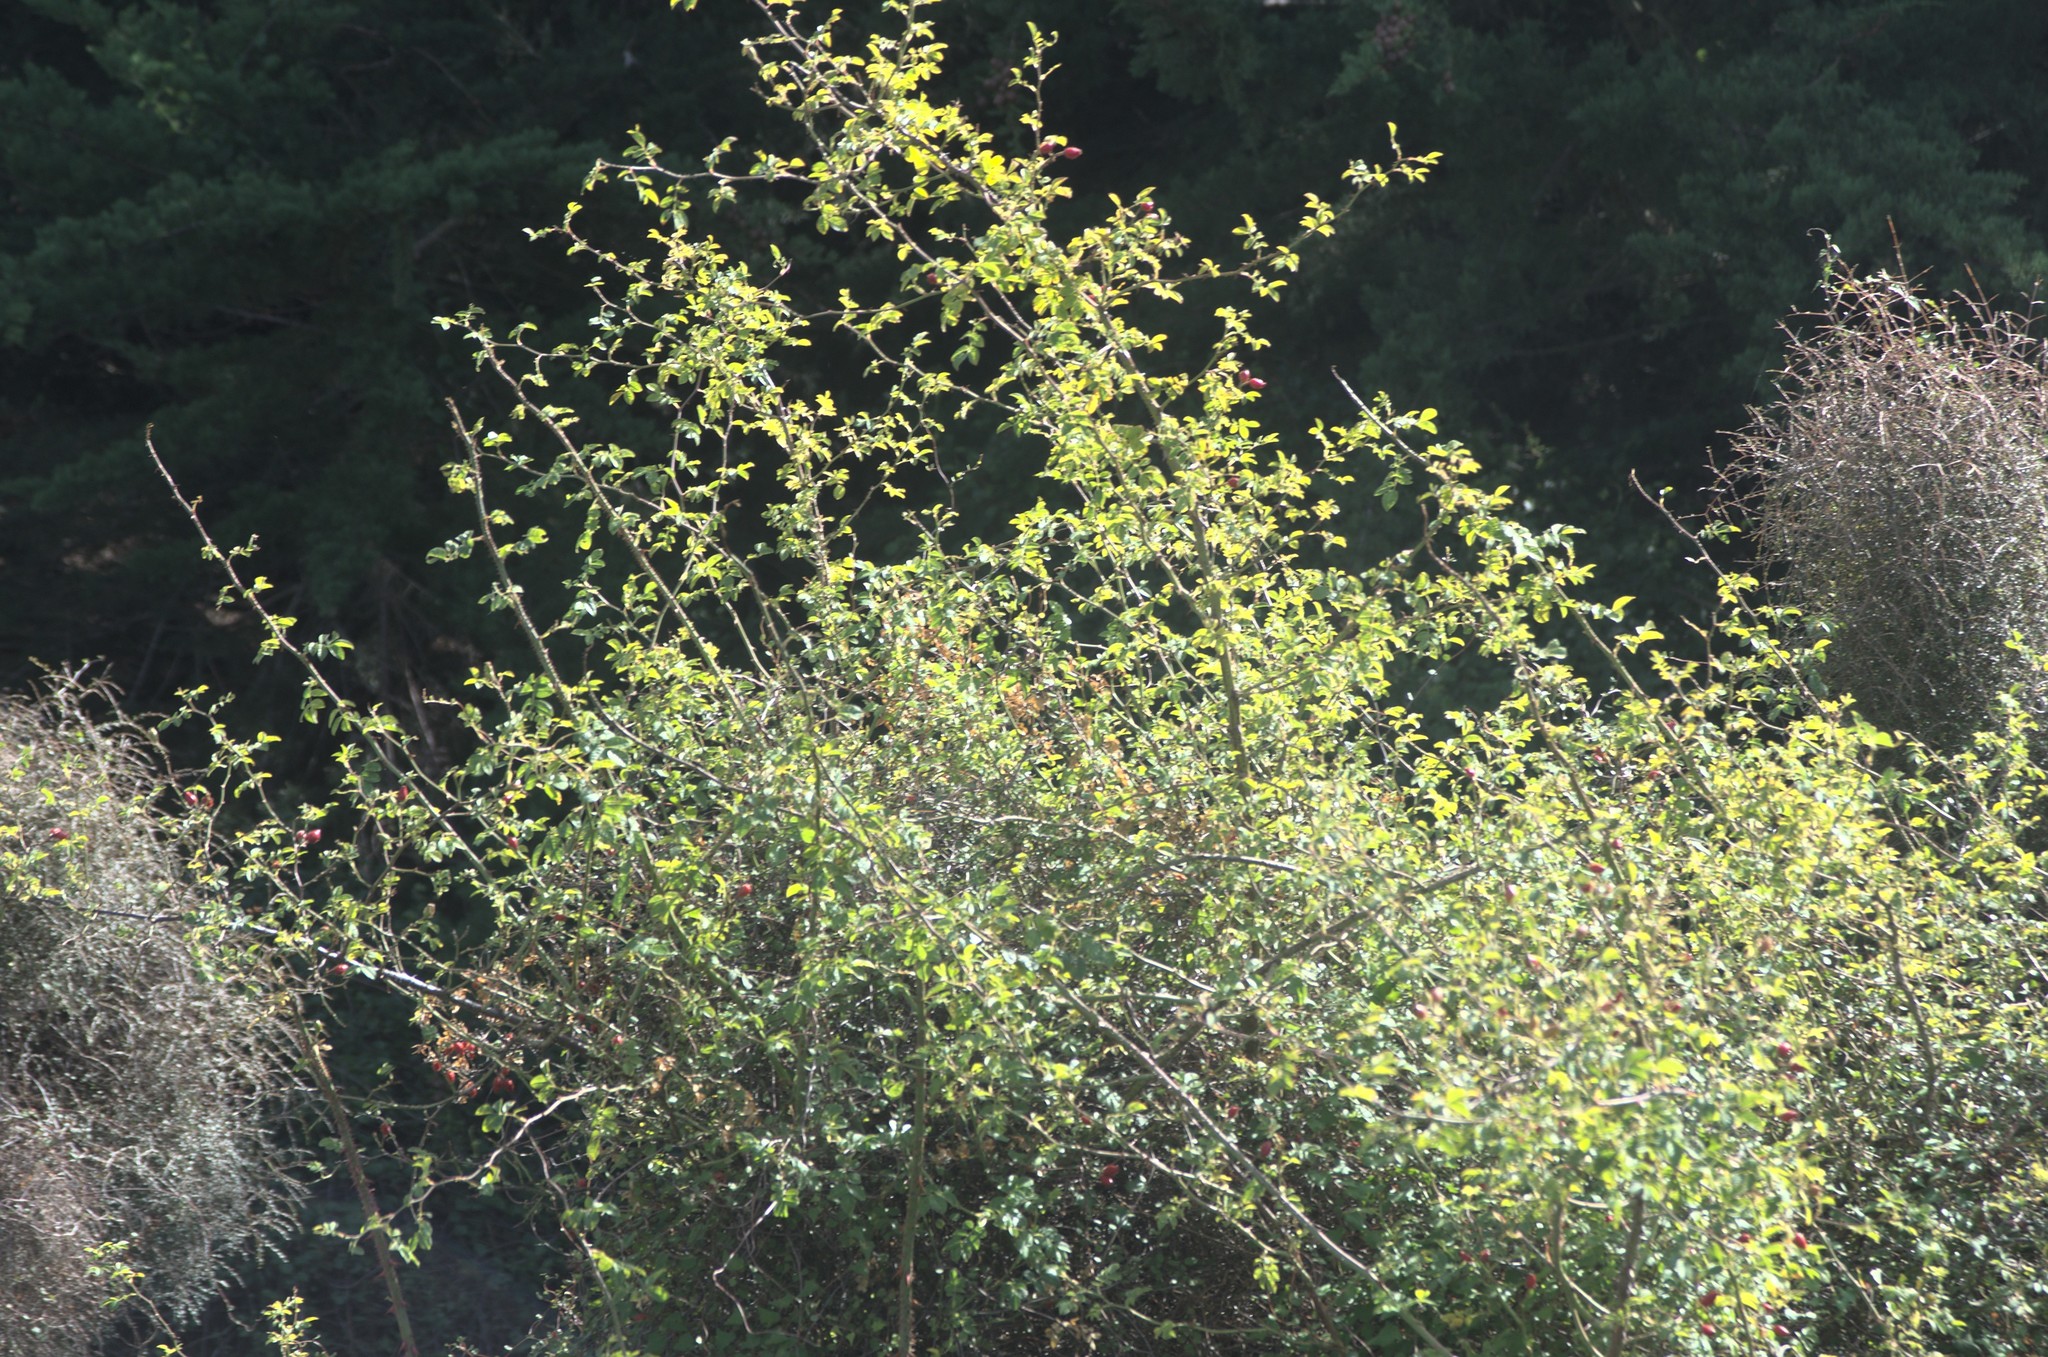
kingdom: Plantae
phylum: Tracheophyta
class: Magnoliopsida
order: Rosales
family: Rosaceae
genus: Rosa
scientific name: Rosa rubiginosa
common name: Sweet-briar
